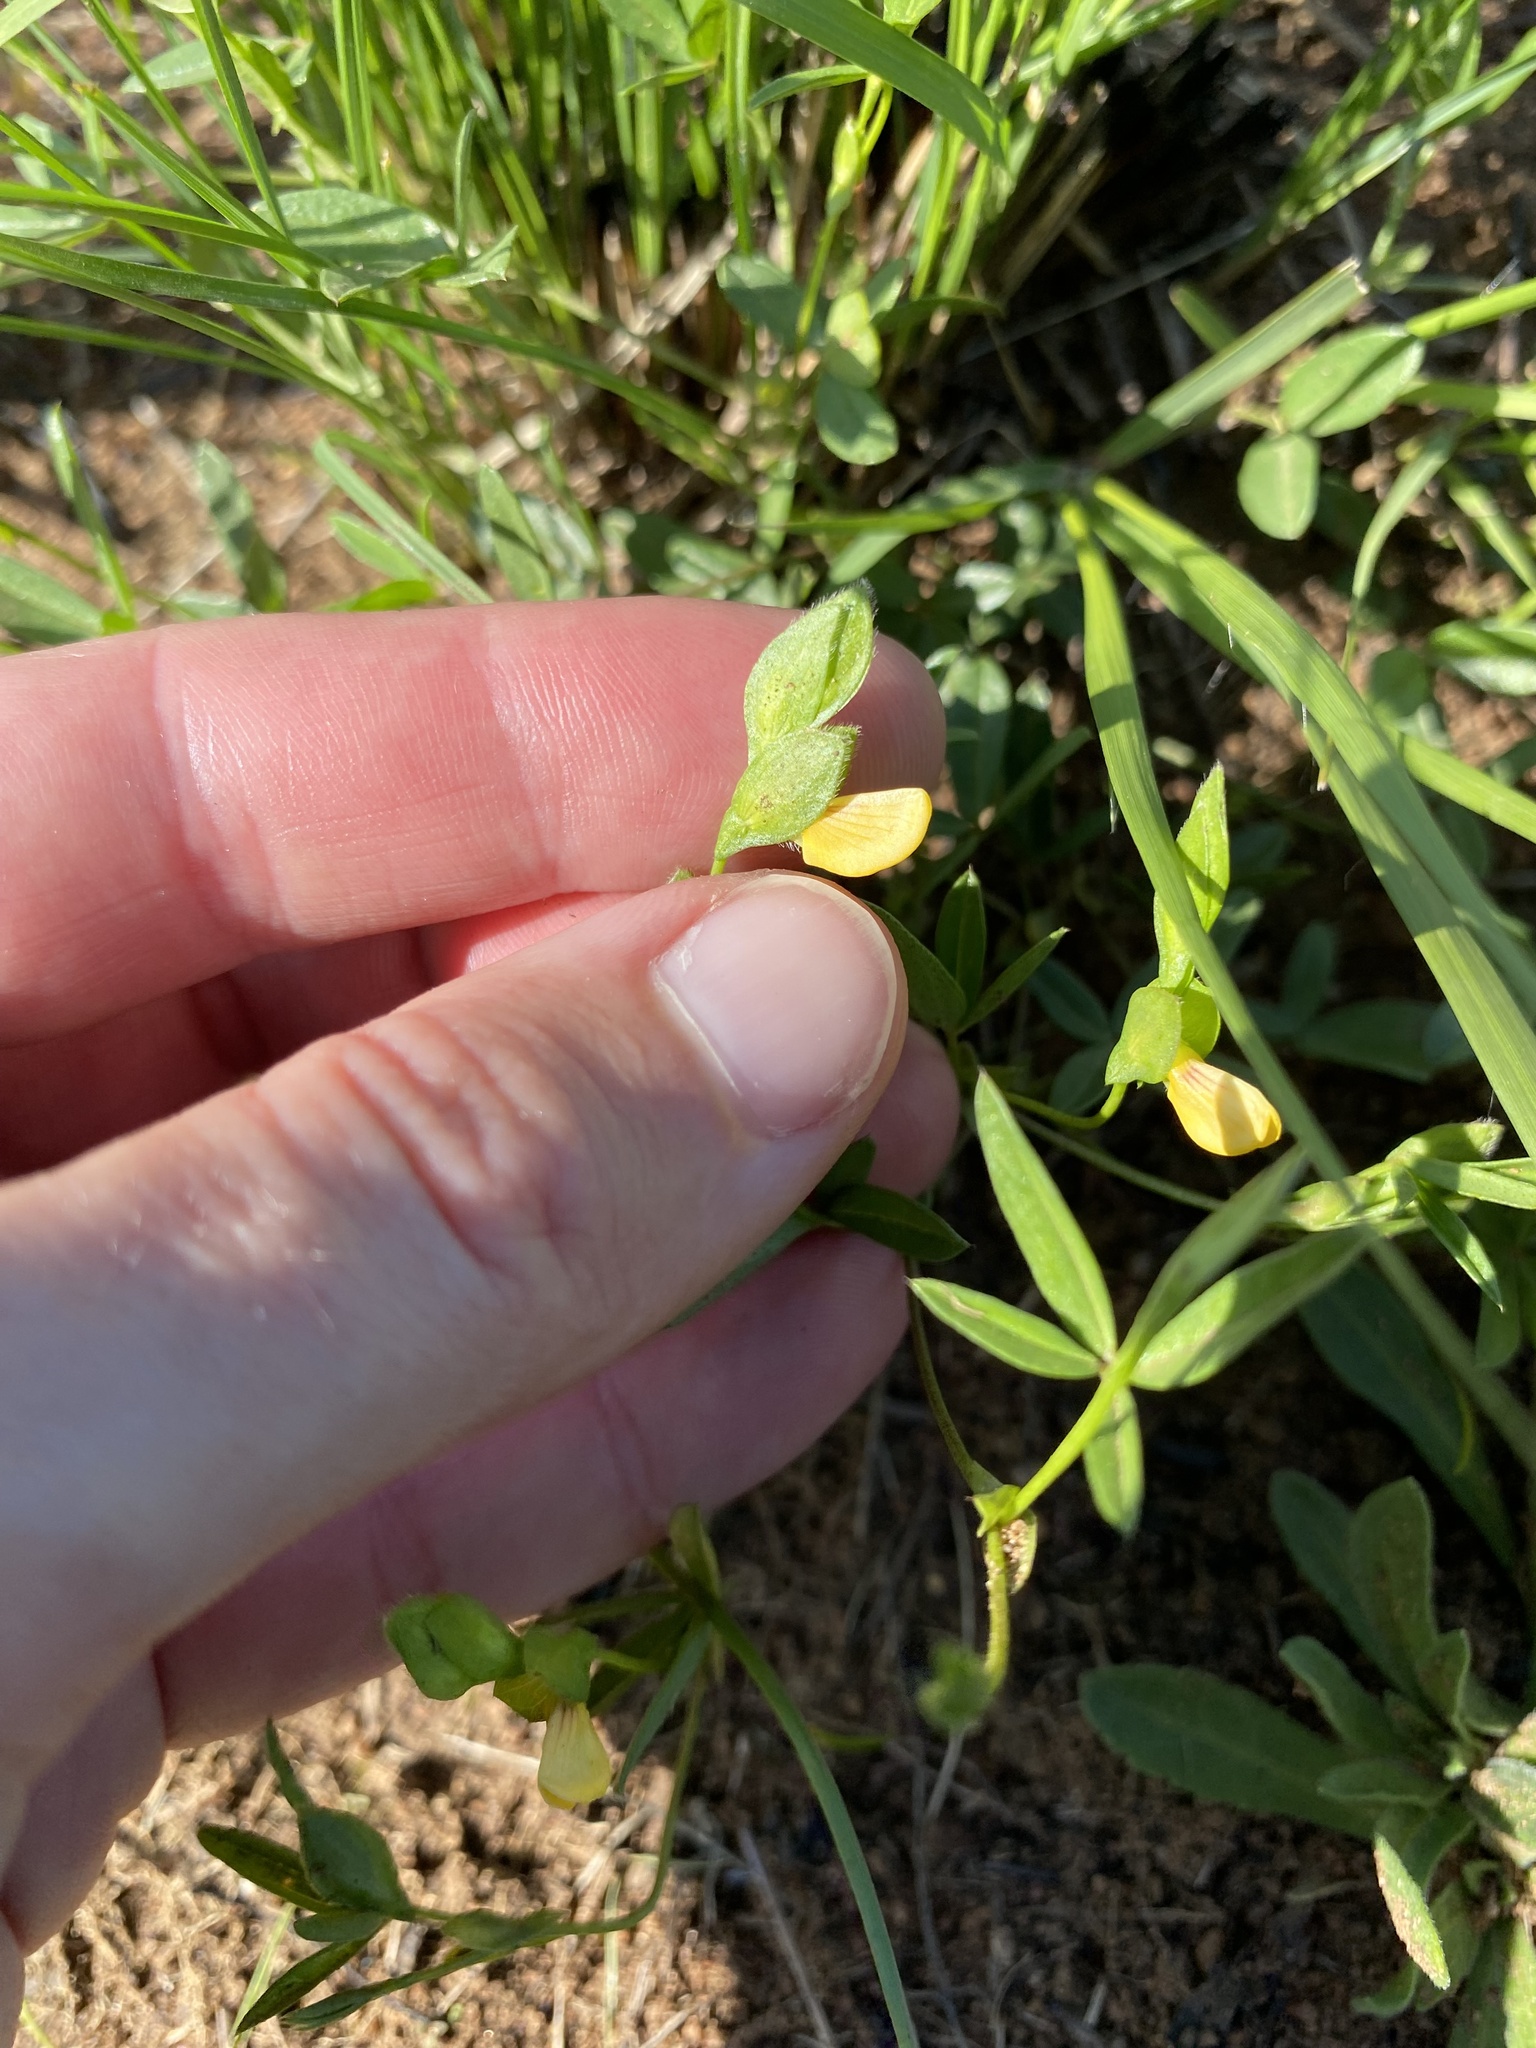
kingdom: Plantae
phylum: Tracheophyta
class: Magnoliopsida
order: Fabales
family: Fabaceae
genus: Zornia
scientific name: Zornia capensis
